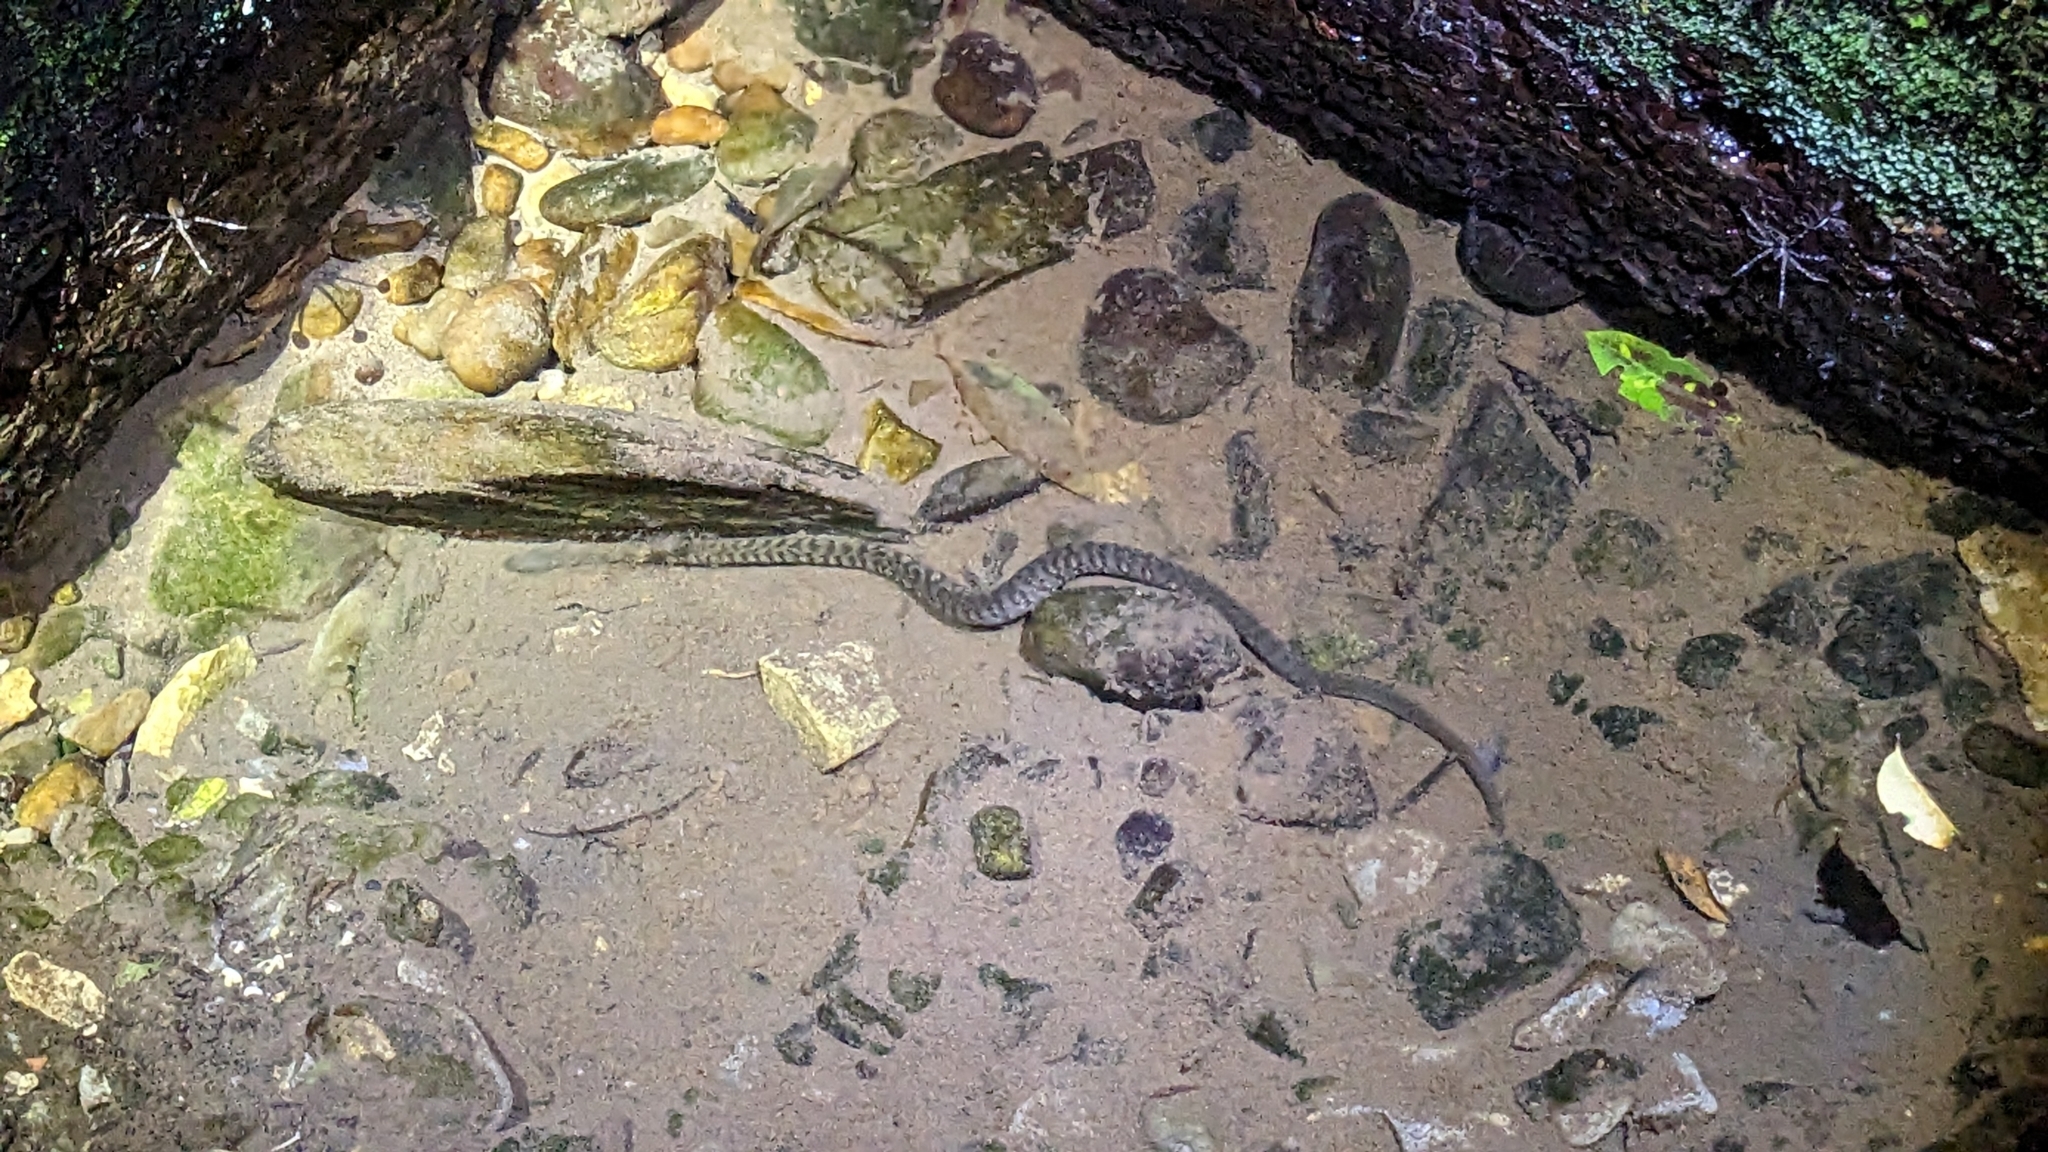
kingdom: Animalia
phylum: Chordata
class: Squamata
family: Colubridae
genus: Trimerodytes
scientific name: Trimerodytes percarinatus
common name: Eastern water snake
